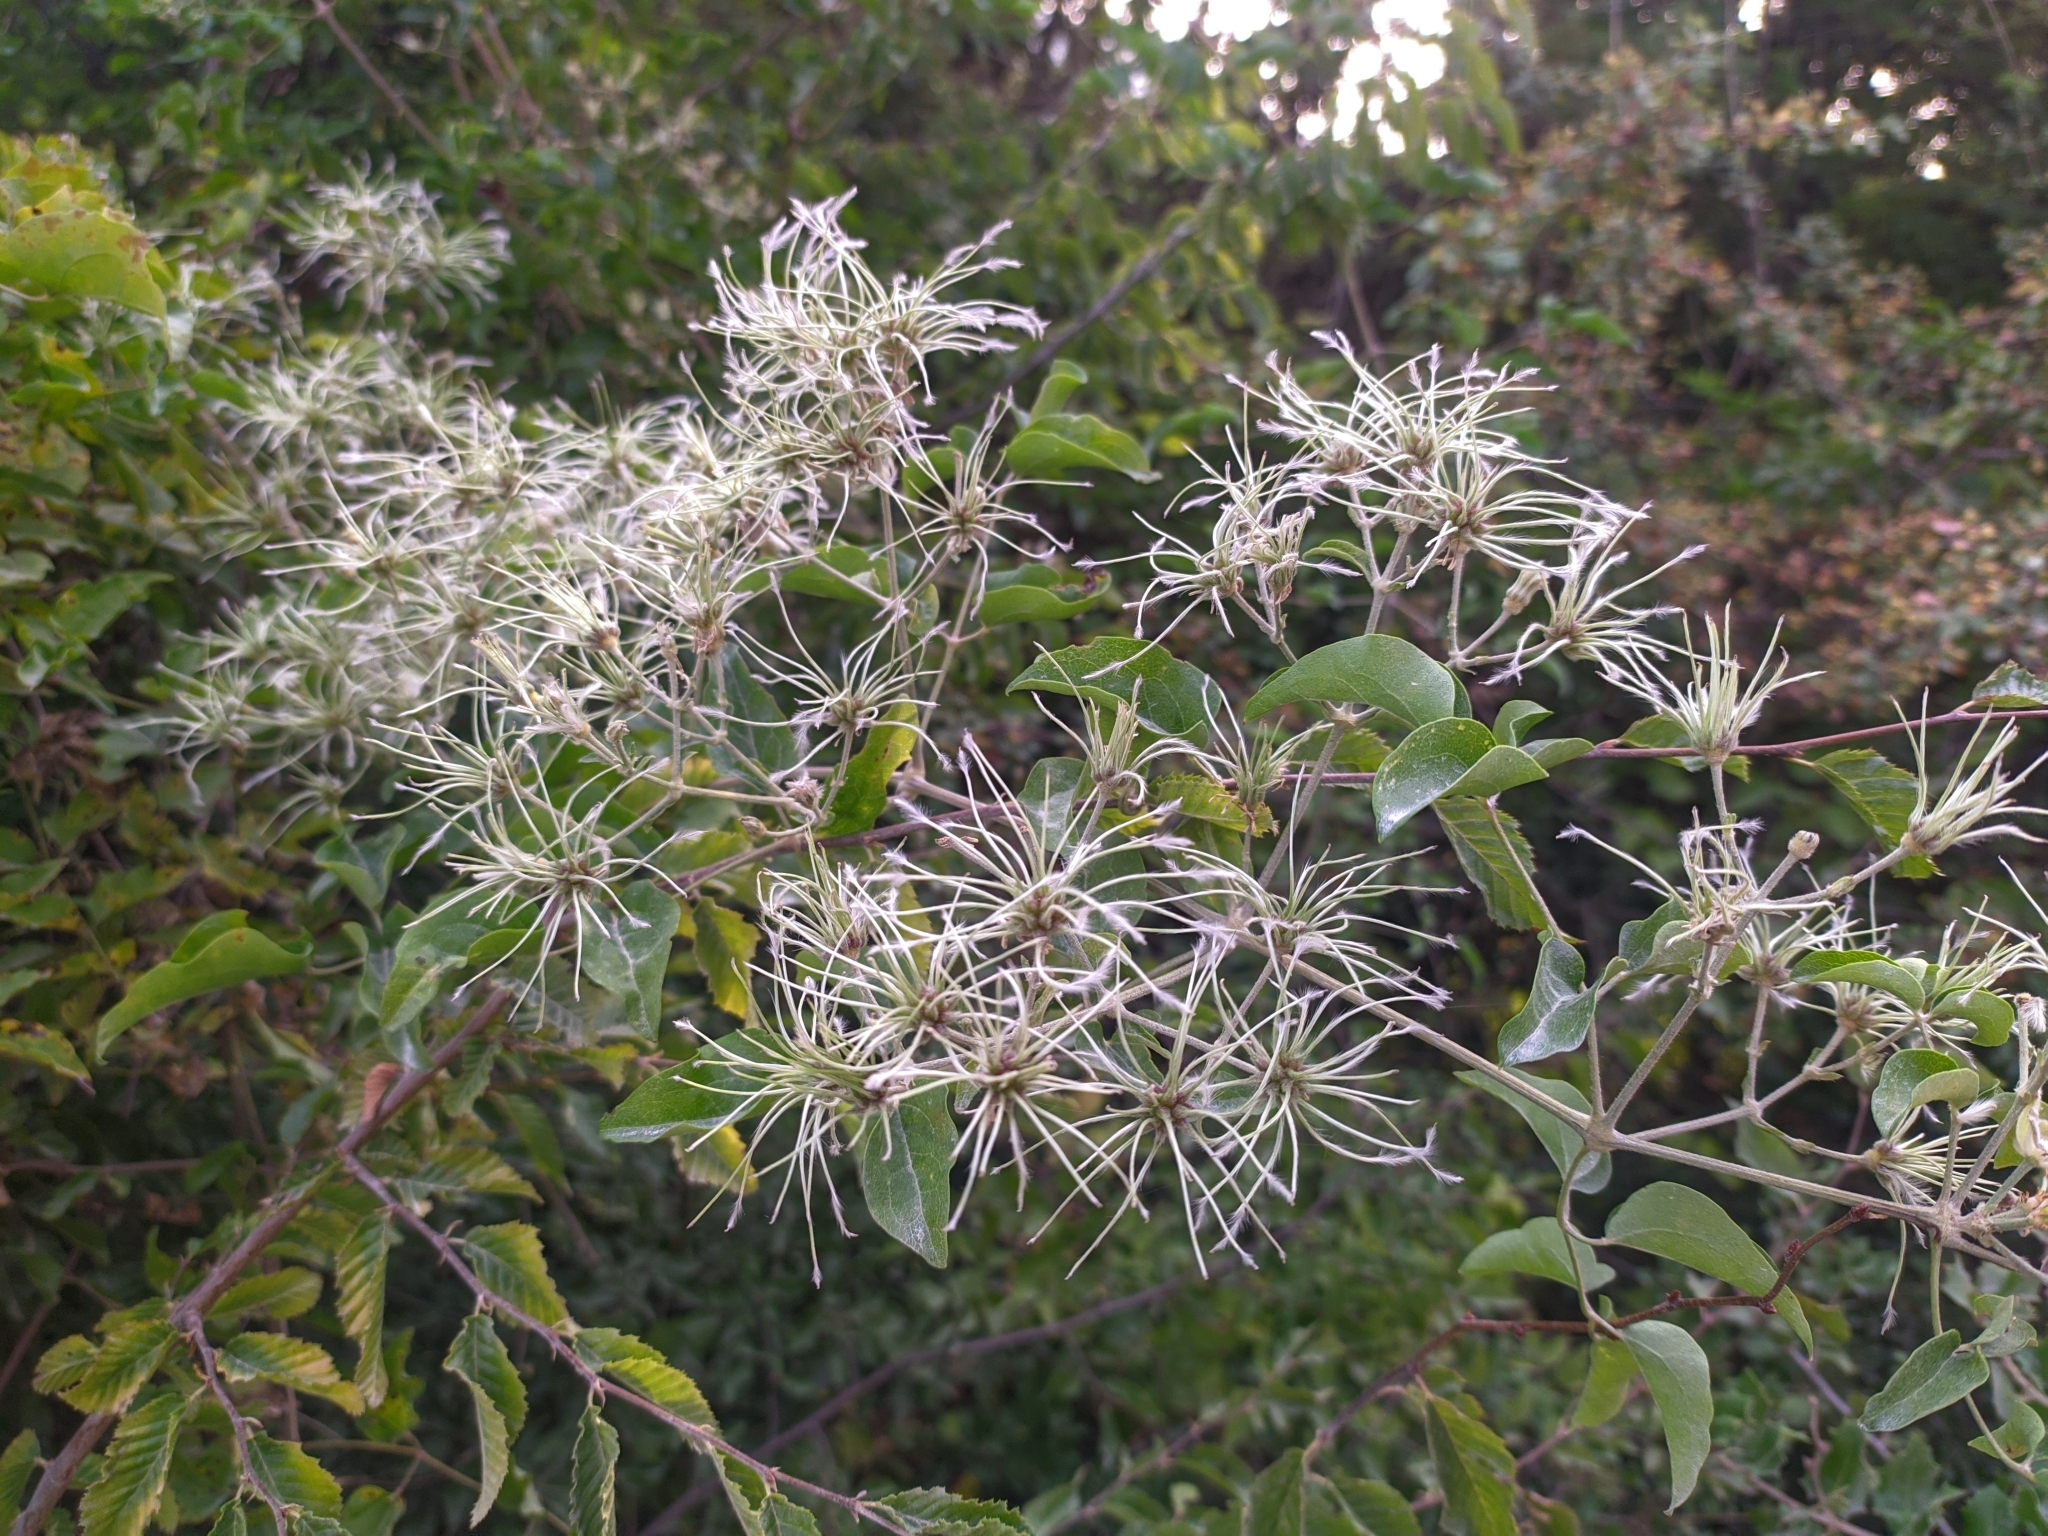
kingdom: Plantae
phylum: Tracheophyta
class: Magnoliopsida
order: Ranunculales
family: Ranunculaceae
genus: Clematis
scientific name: Clematis vitalba
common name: Evergreen clematis
